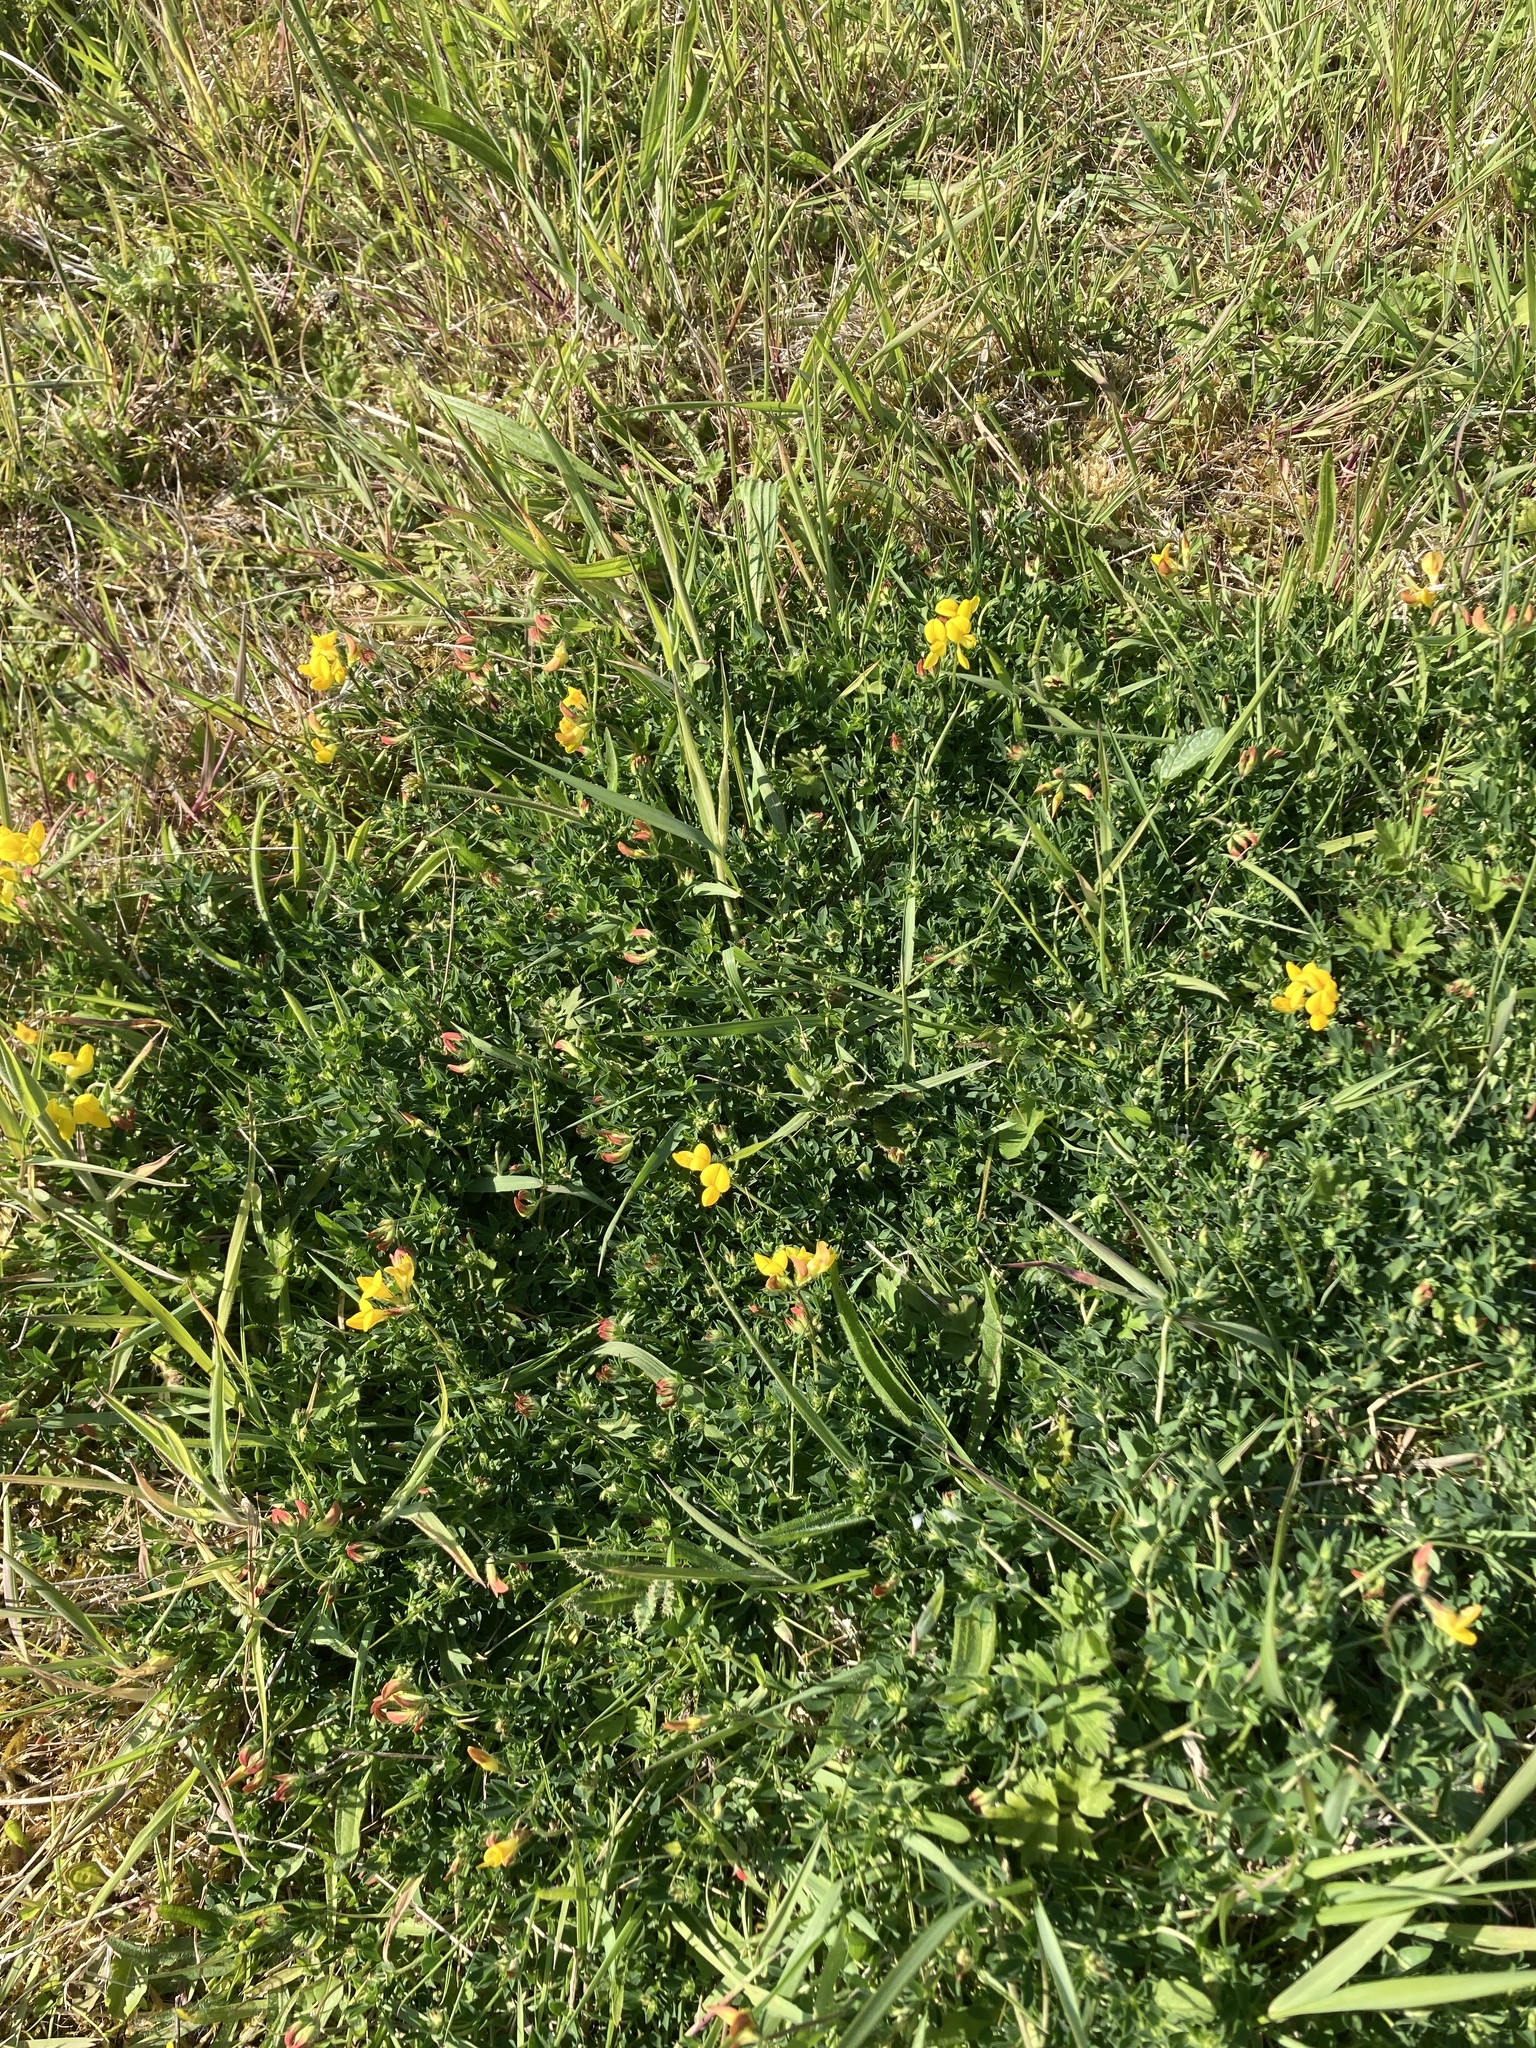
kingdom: Plantae
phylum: Tracheophyta
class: Magnoliopsida
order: Fabales
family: Fabaceae
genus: Lotus
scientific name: Lotus corniculatus
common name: Common bird's-foot-trefoil
